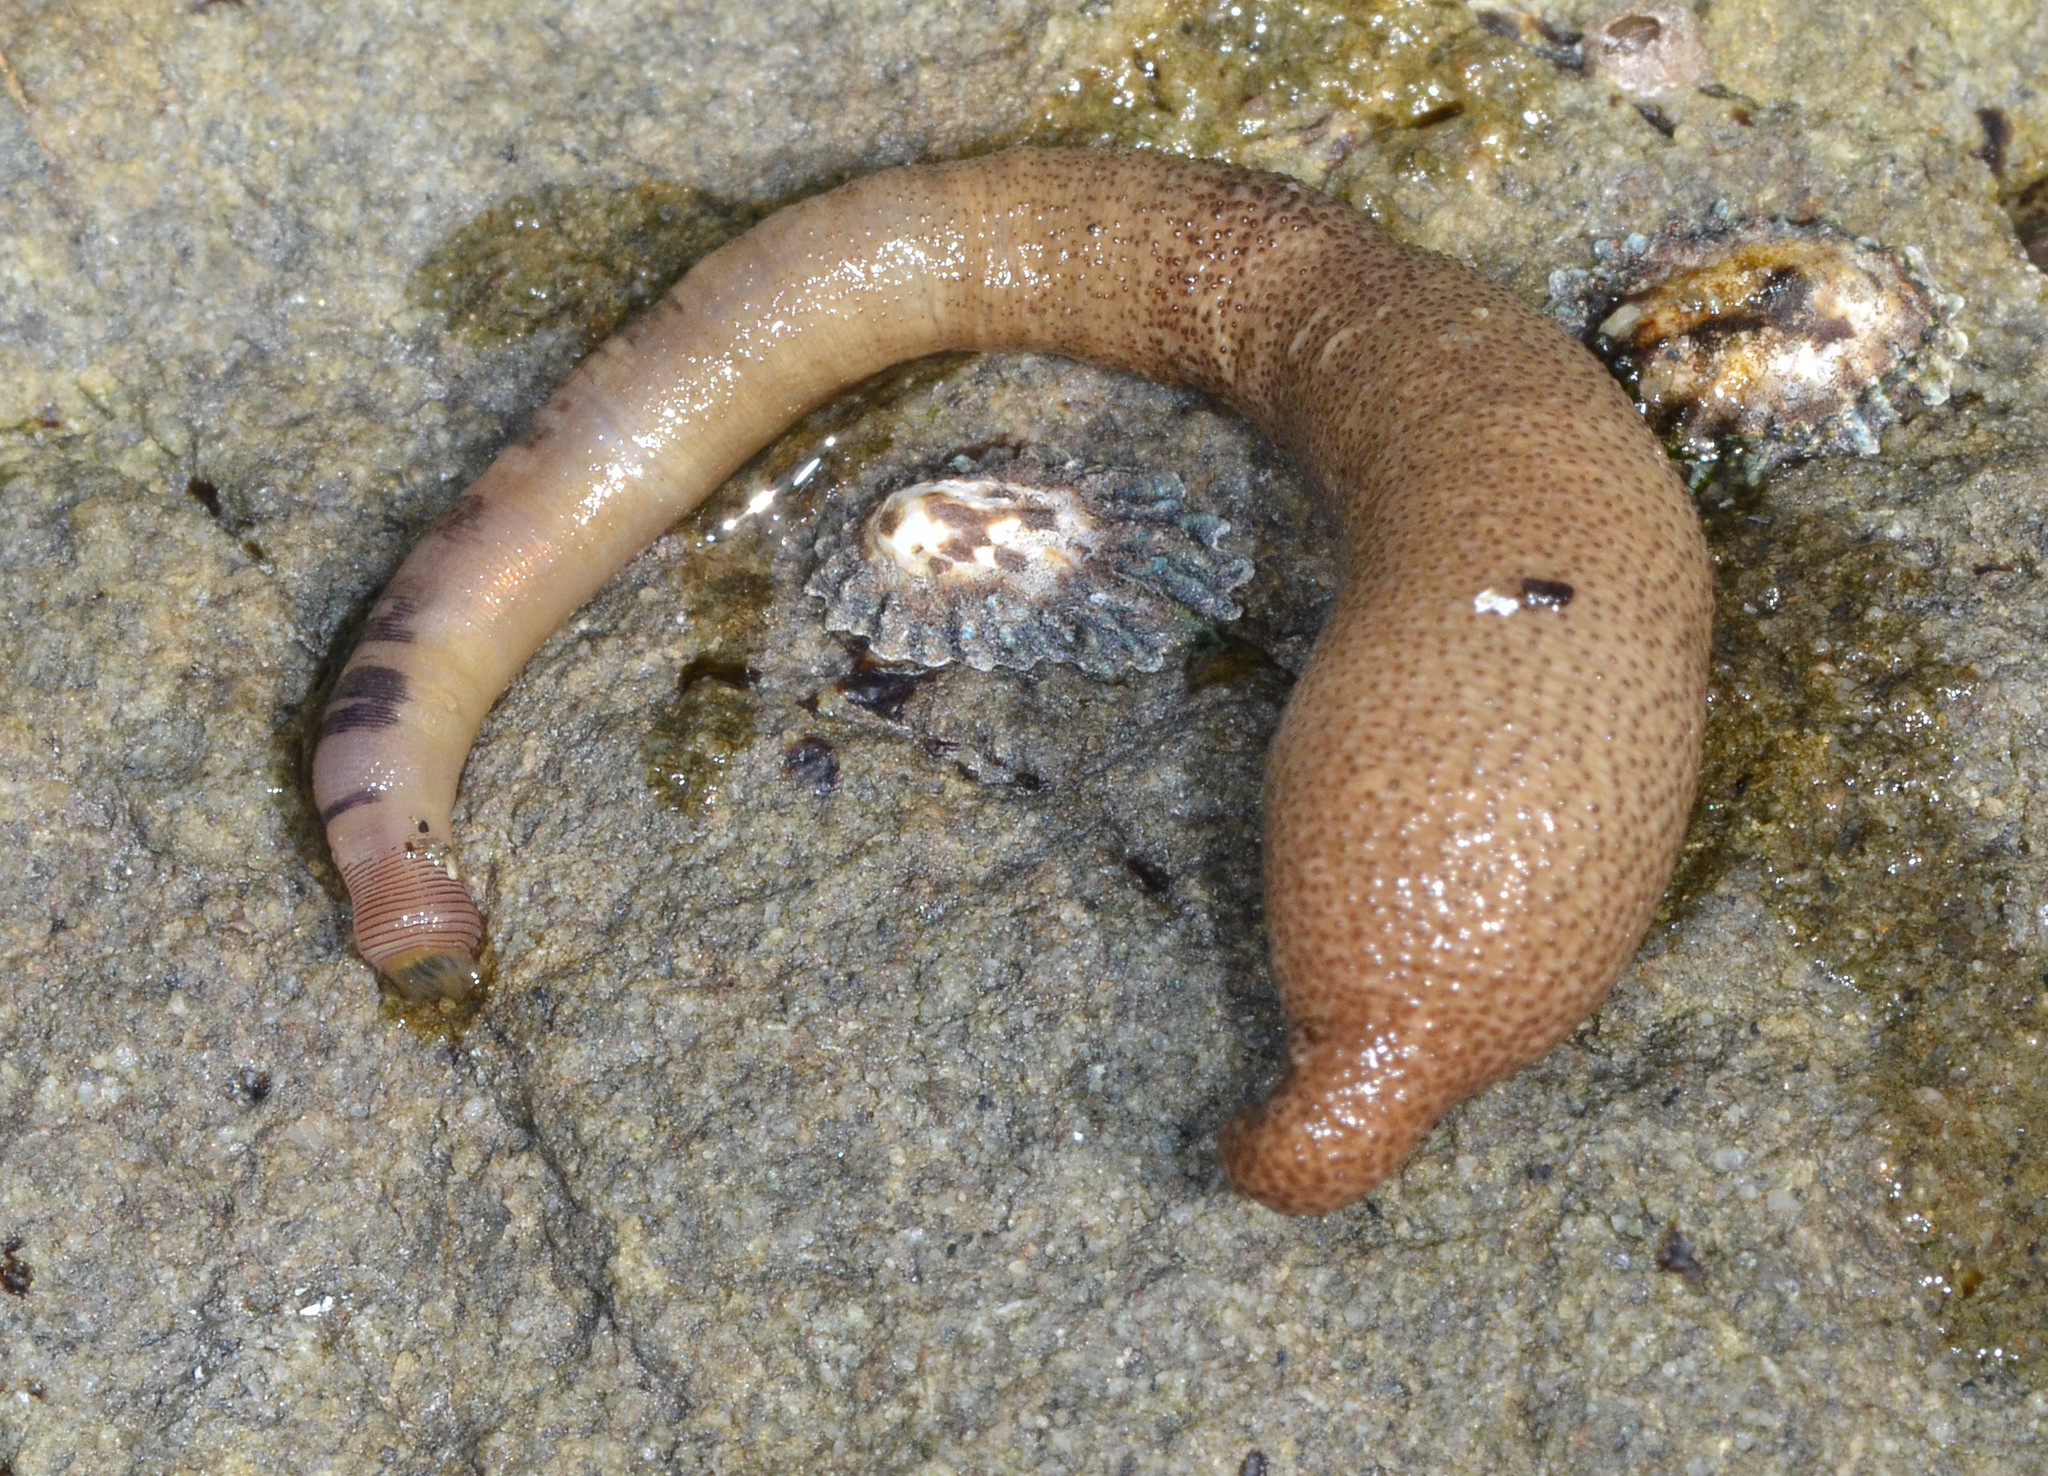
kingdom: Animalia
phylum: Sipuncula
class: Phascolosomatidea
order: Phascolosomatiformes
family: Phascolosomatidae
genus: Phascolosoma
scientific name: Phascolosoma agassizii
